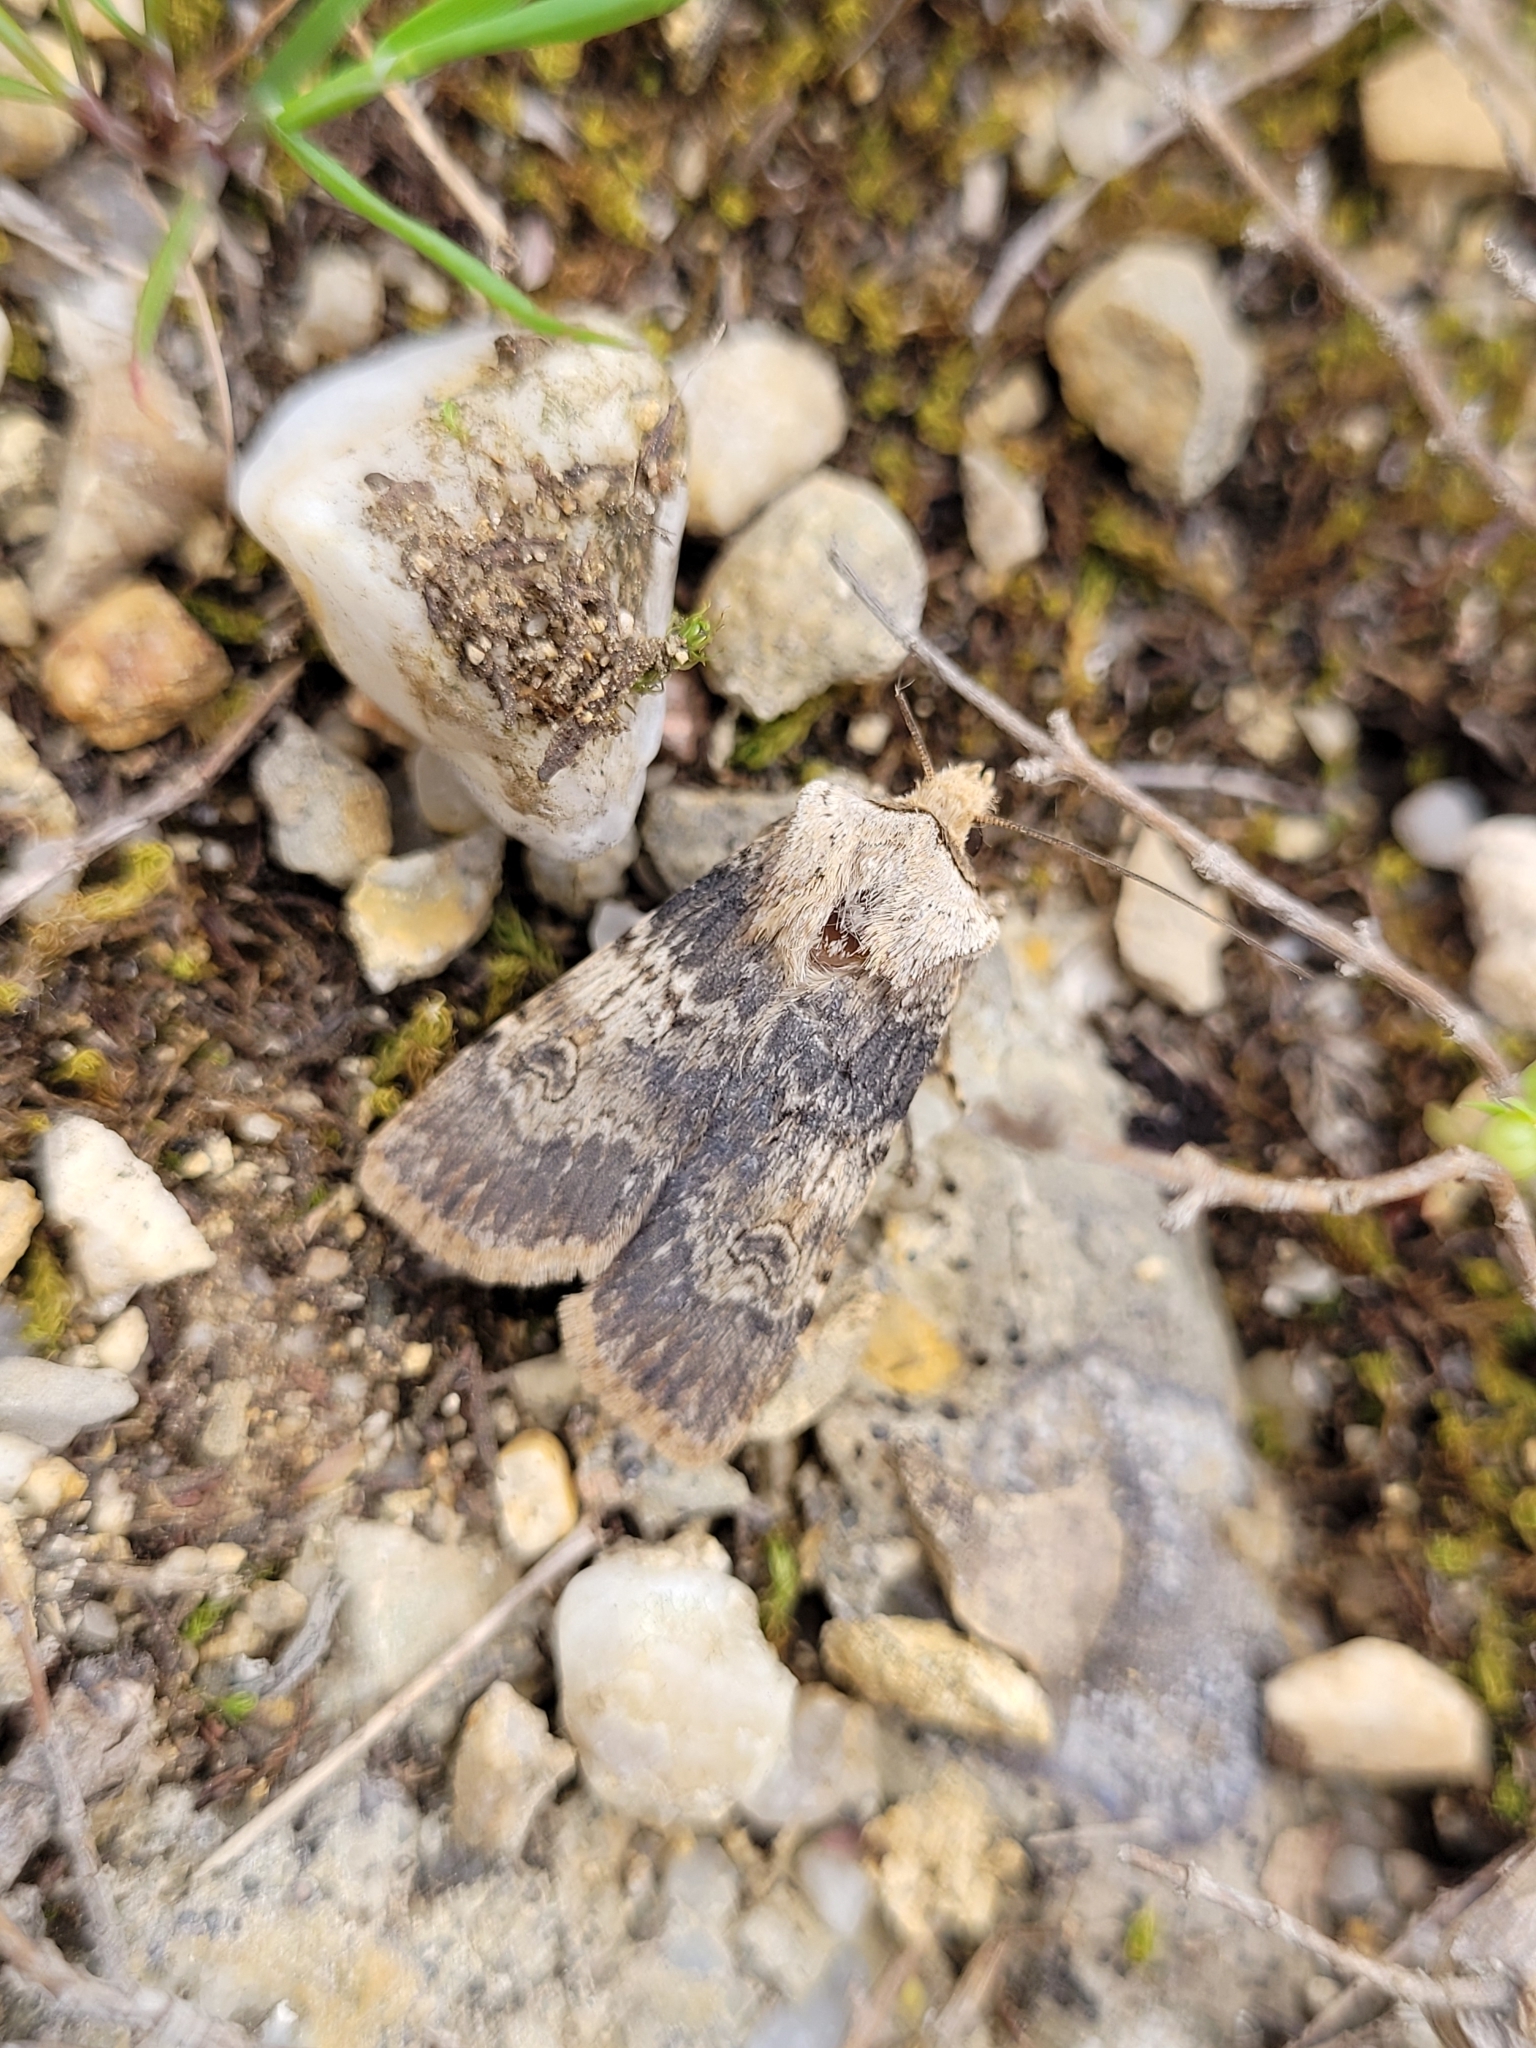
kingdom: Animalia
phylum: Arthropoda
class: Insecta
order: Lepidoptera
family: Noctuidae
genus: Agrotis
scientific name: Agrotis puta
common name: Shuttle-shaped dart
